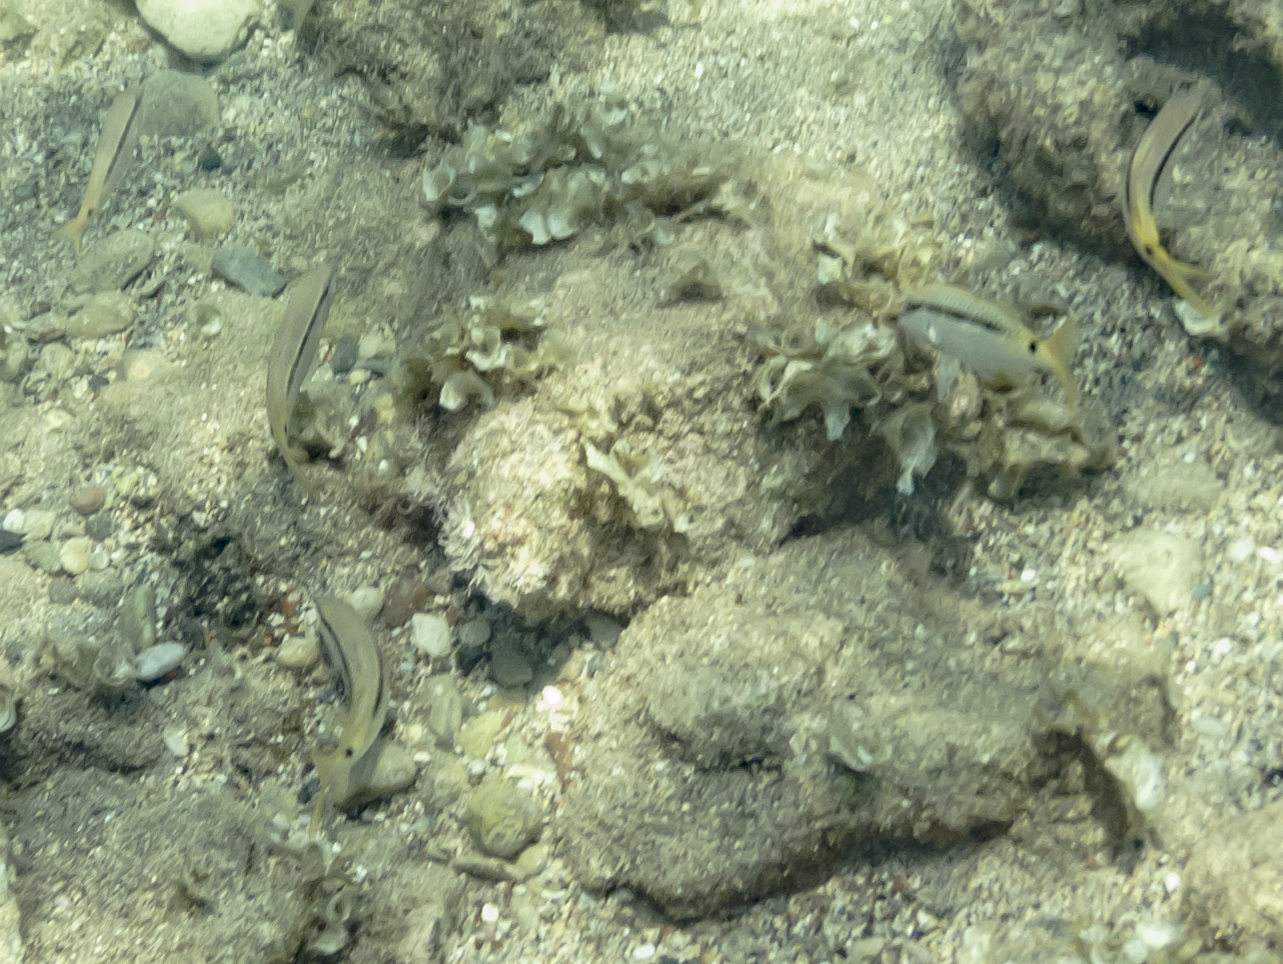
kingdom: Animalia
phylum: Chordata
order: Perciformes
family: Mullidae
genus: Parupeneus
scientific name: Parupeneus forsskali
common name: Red sea goatfish
